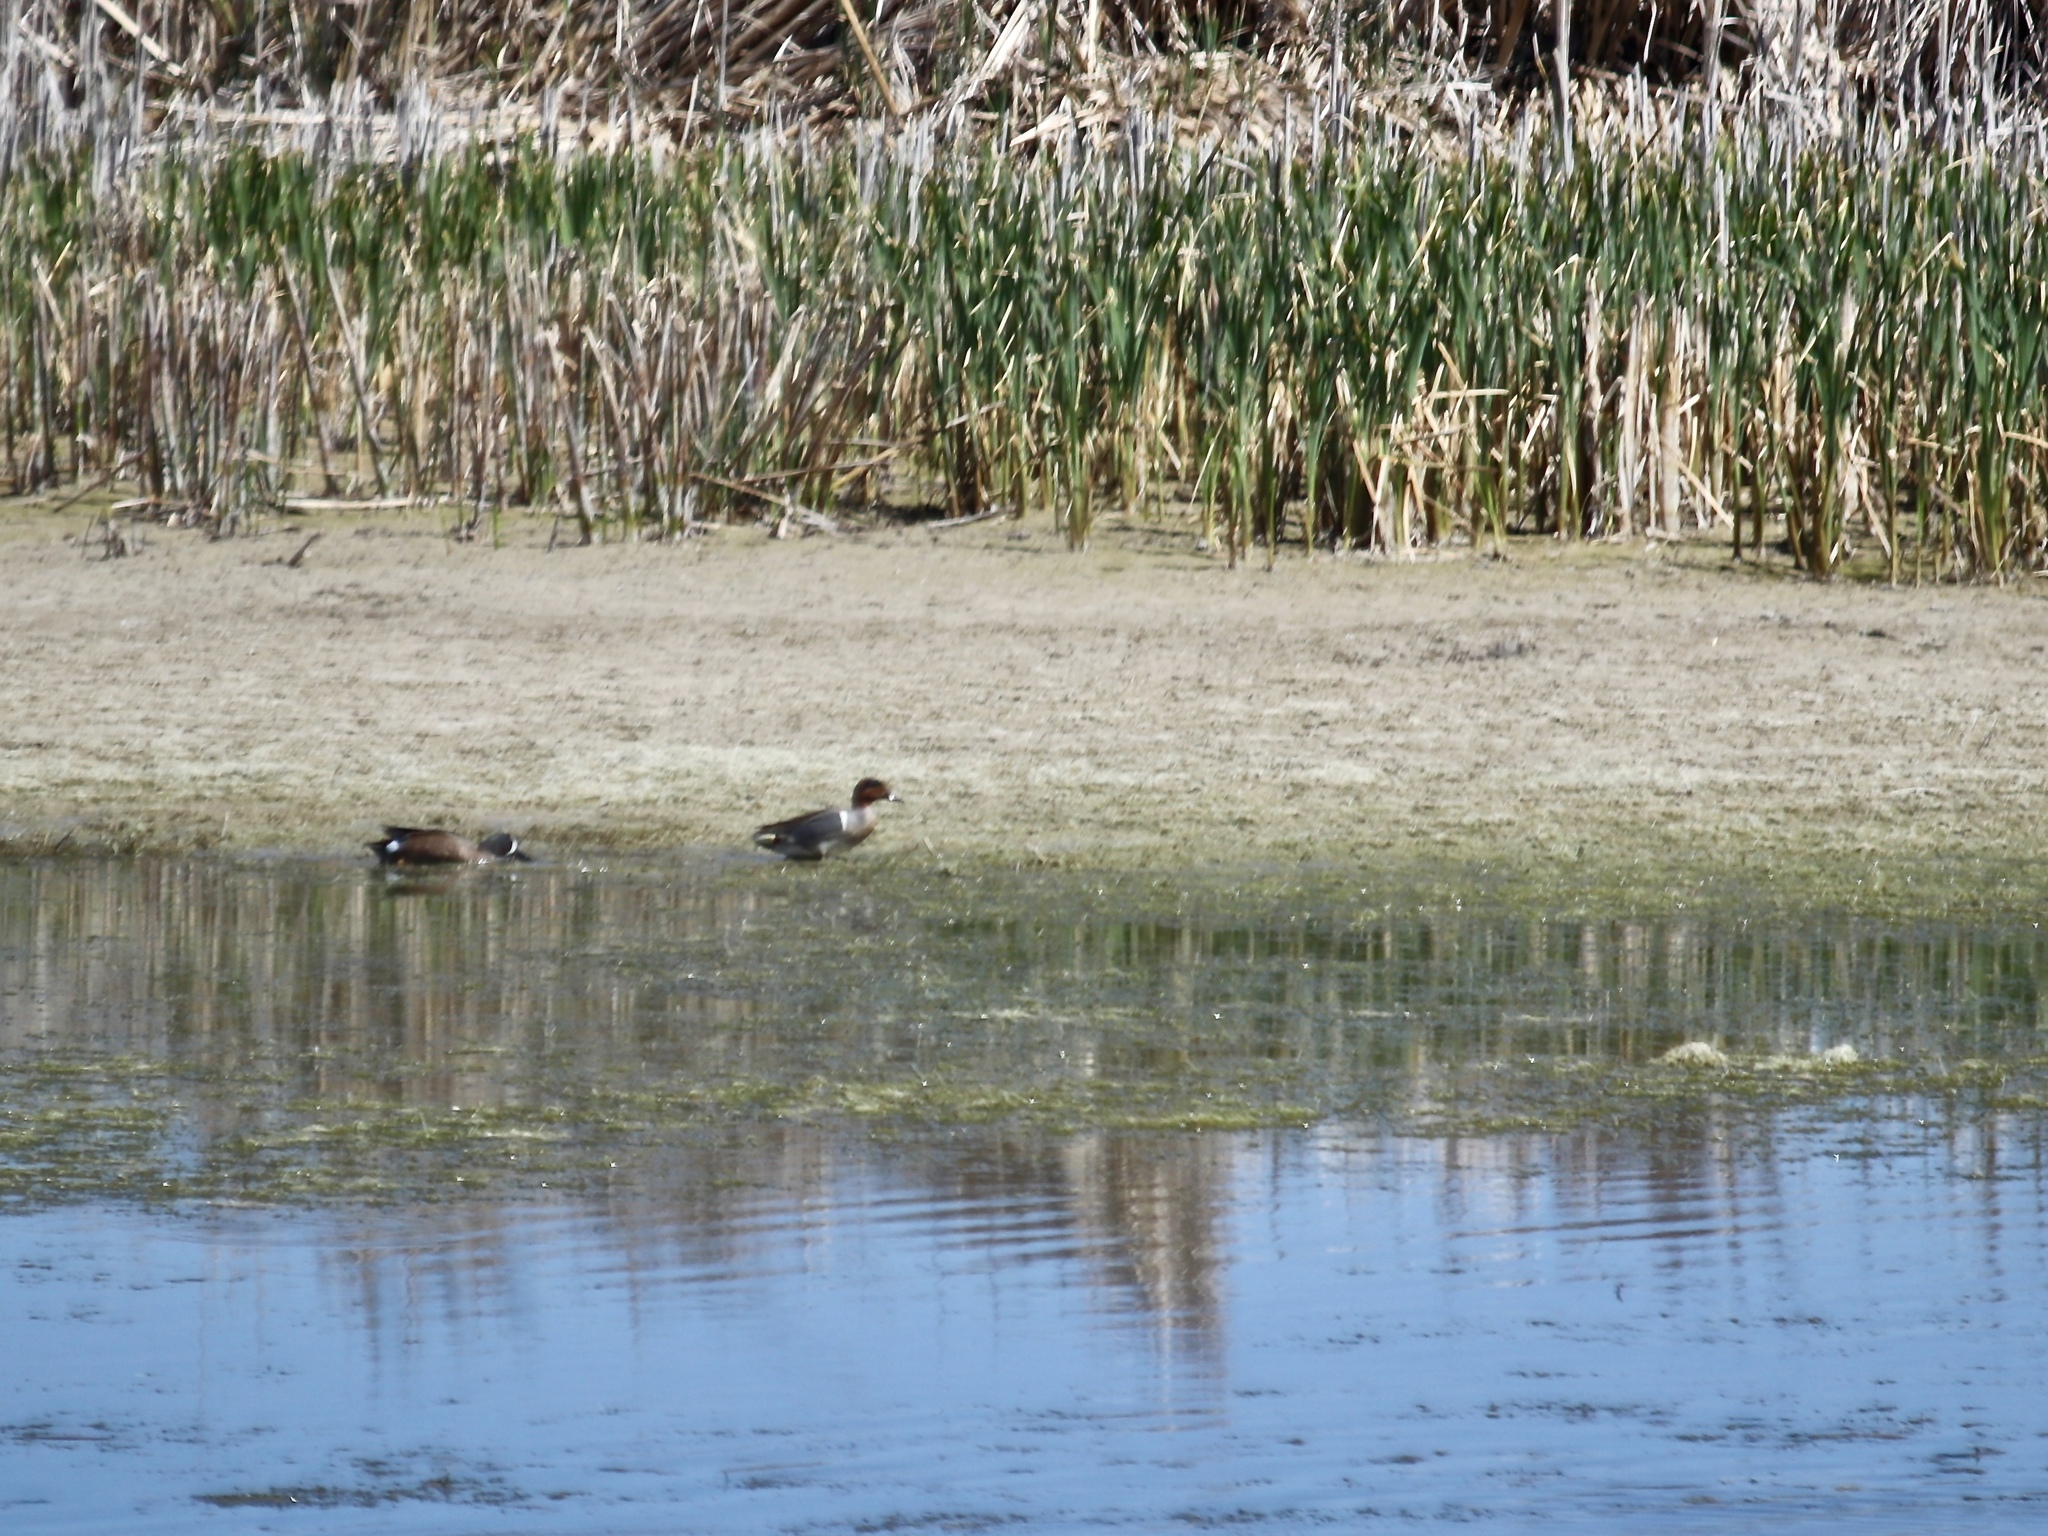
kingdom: Animalia
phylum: Chordata
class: Aves
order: Anseriformes
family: Anatidae
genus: Spatula
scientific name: Spatula discors
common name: Blue-winged teal
